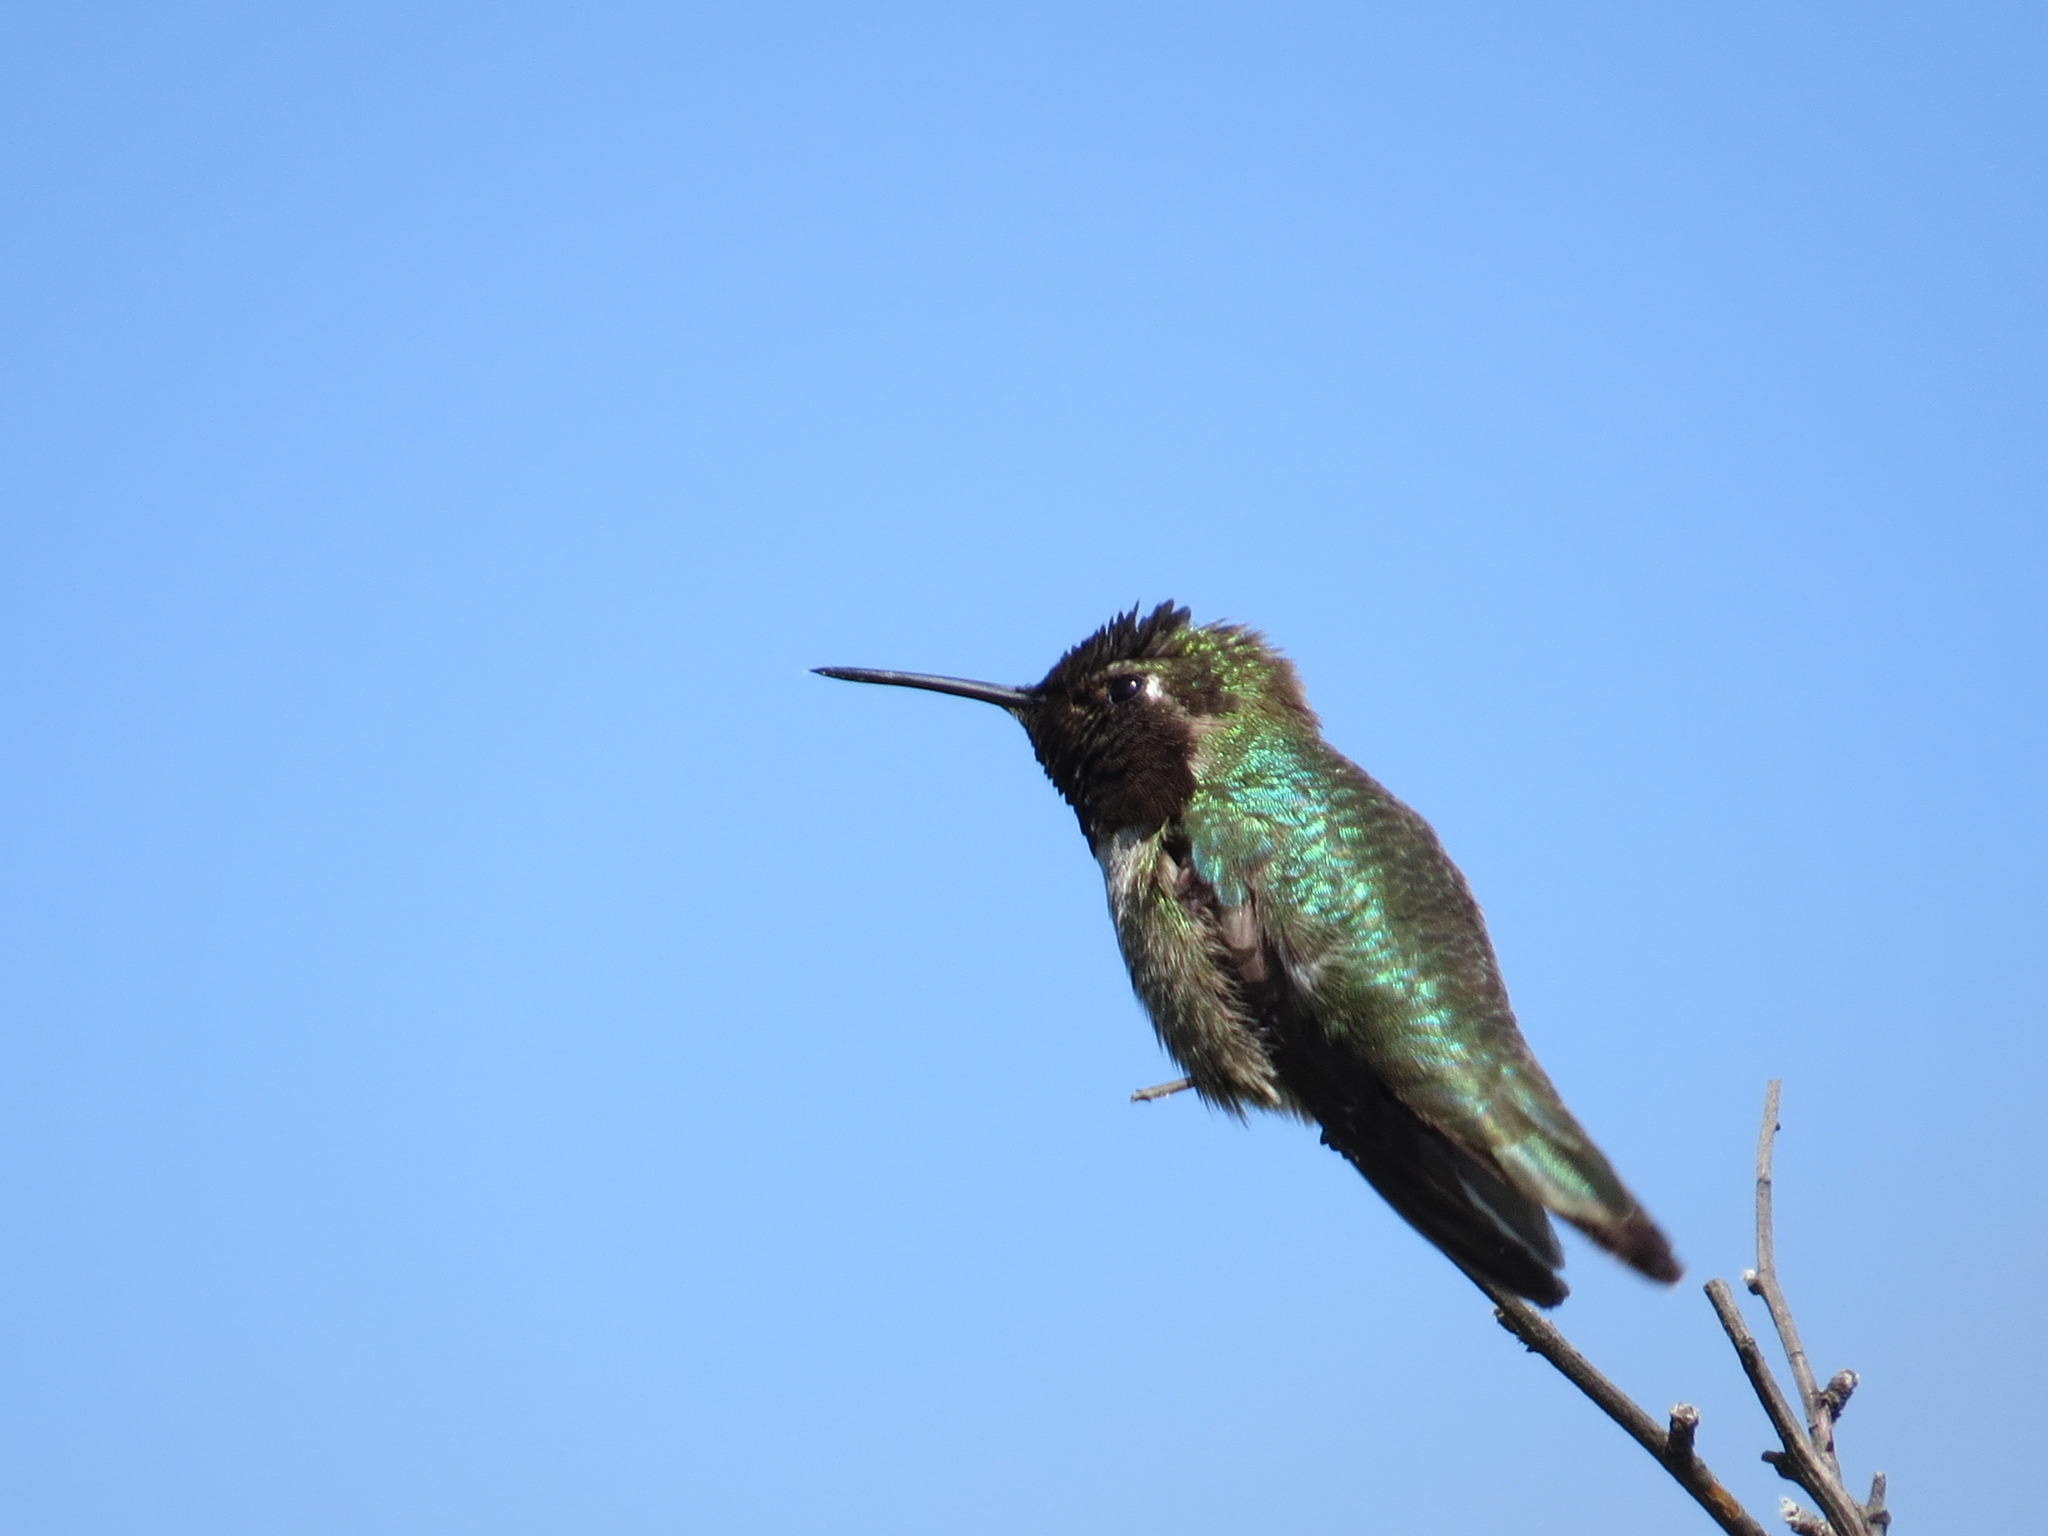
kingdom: Animalia
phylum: Chordata
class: Aves
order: Apodiformes
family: Trochilidae
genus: Calypte
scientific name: Calypte anna
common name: Anna's hummingbird
